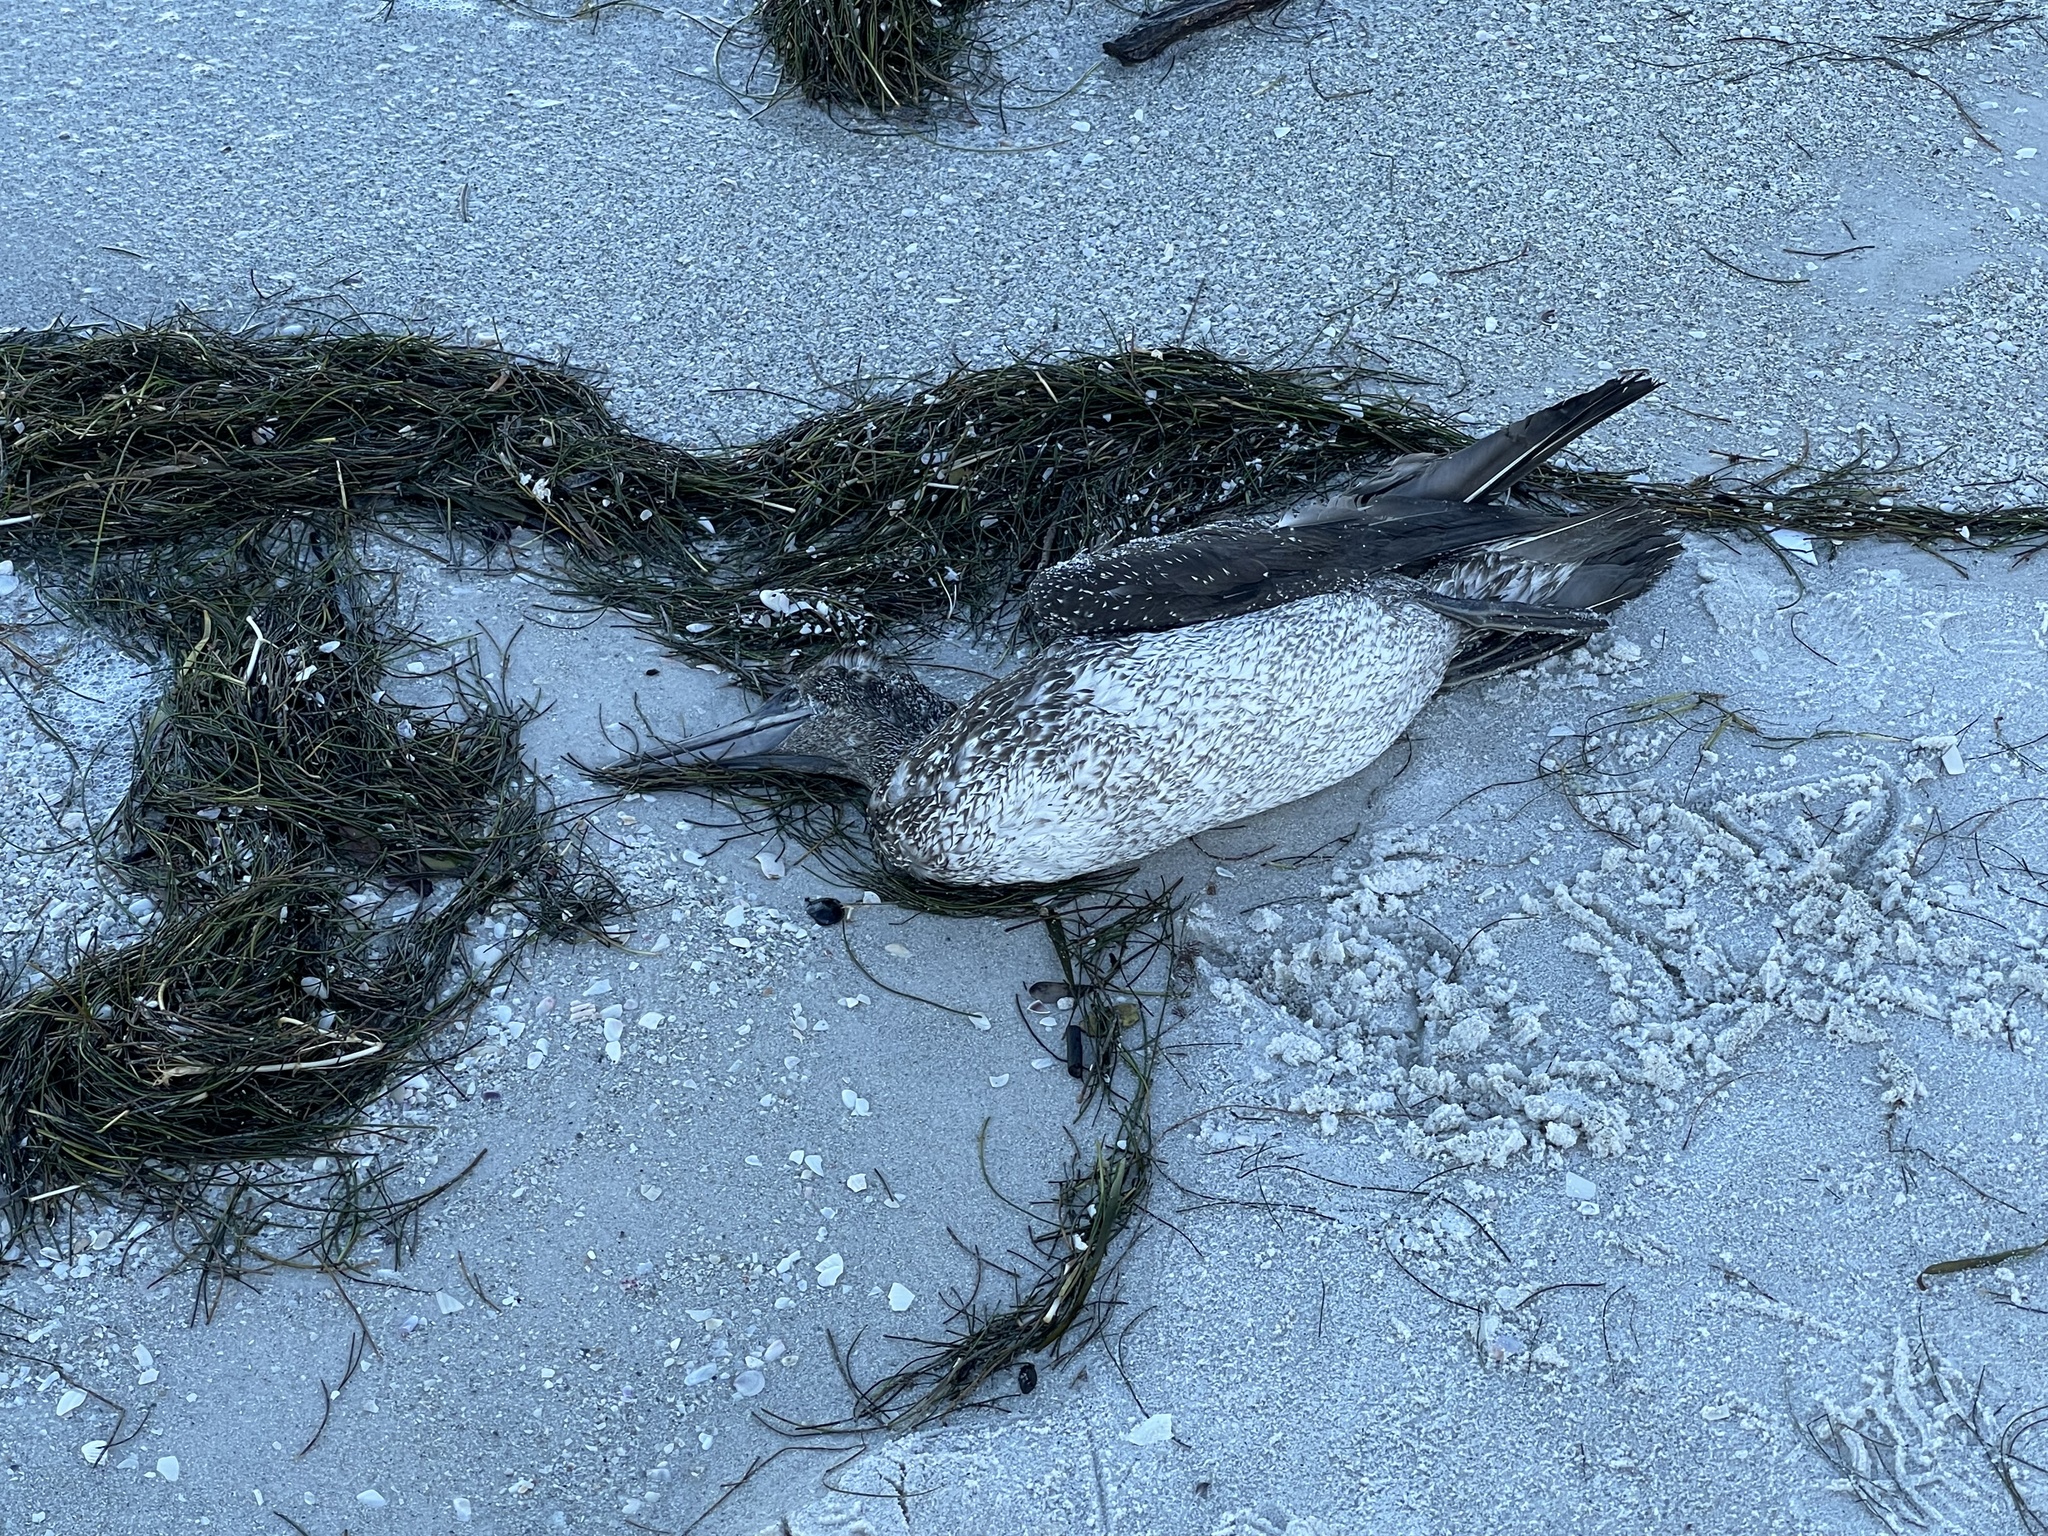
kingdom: Animalia
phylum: Chordata
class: Aves
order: Suliformes
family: Sulidae
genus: Morus
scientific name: Morus bassanus
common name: Northern gannet
